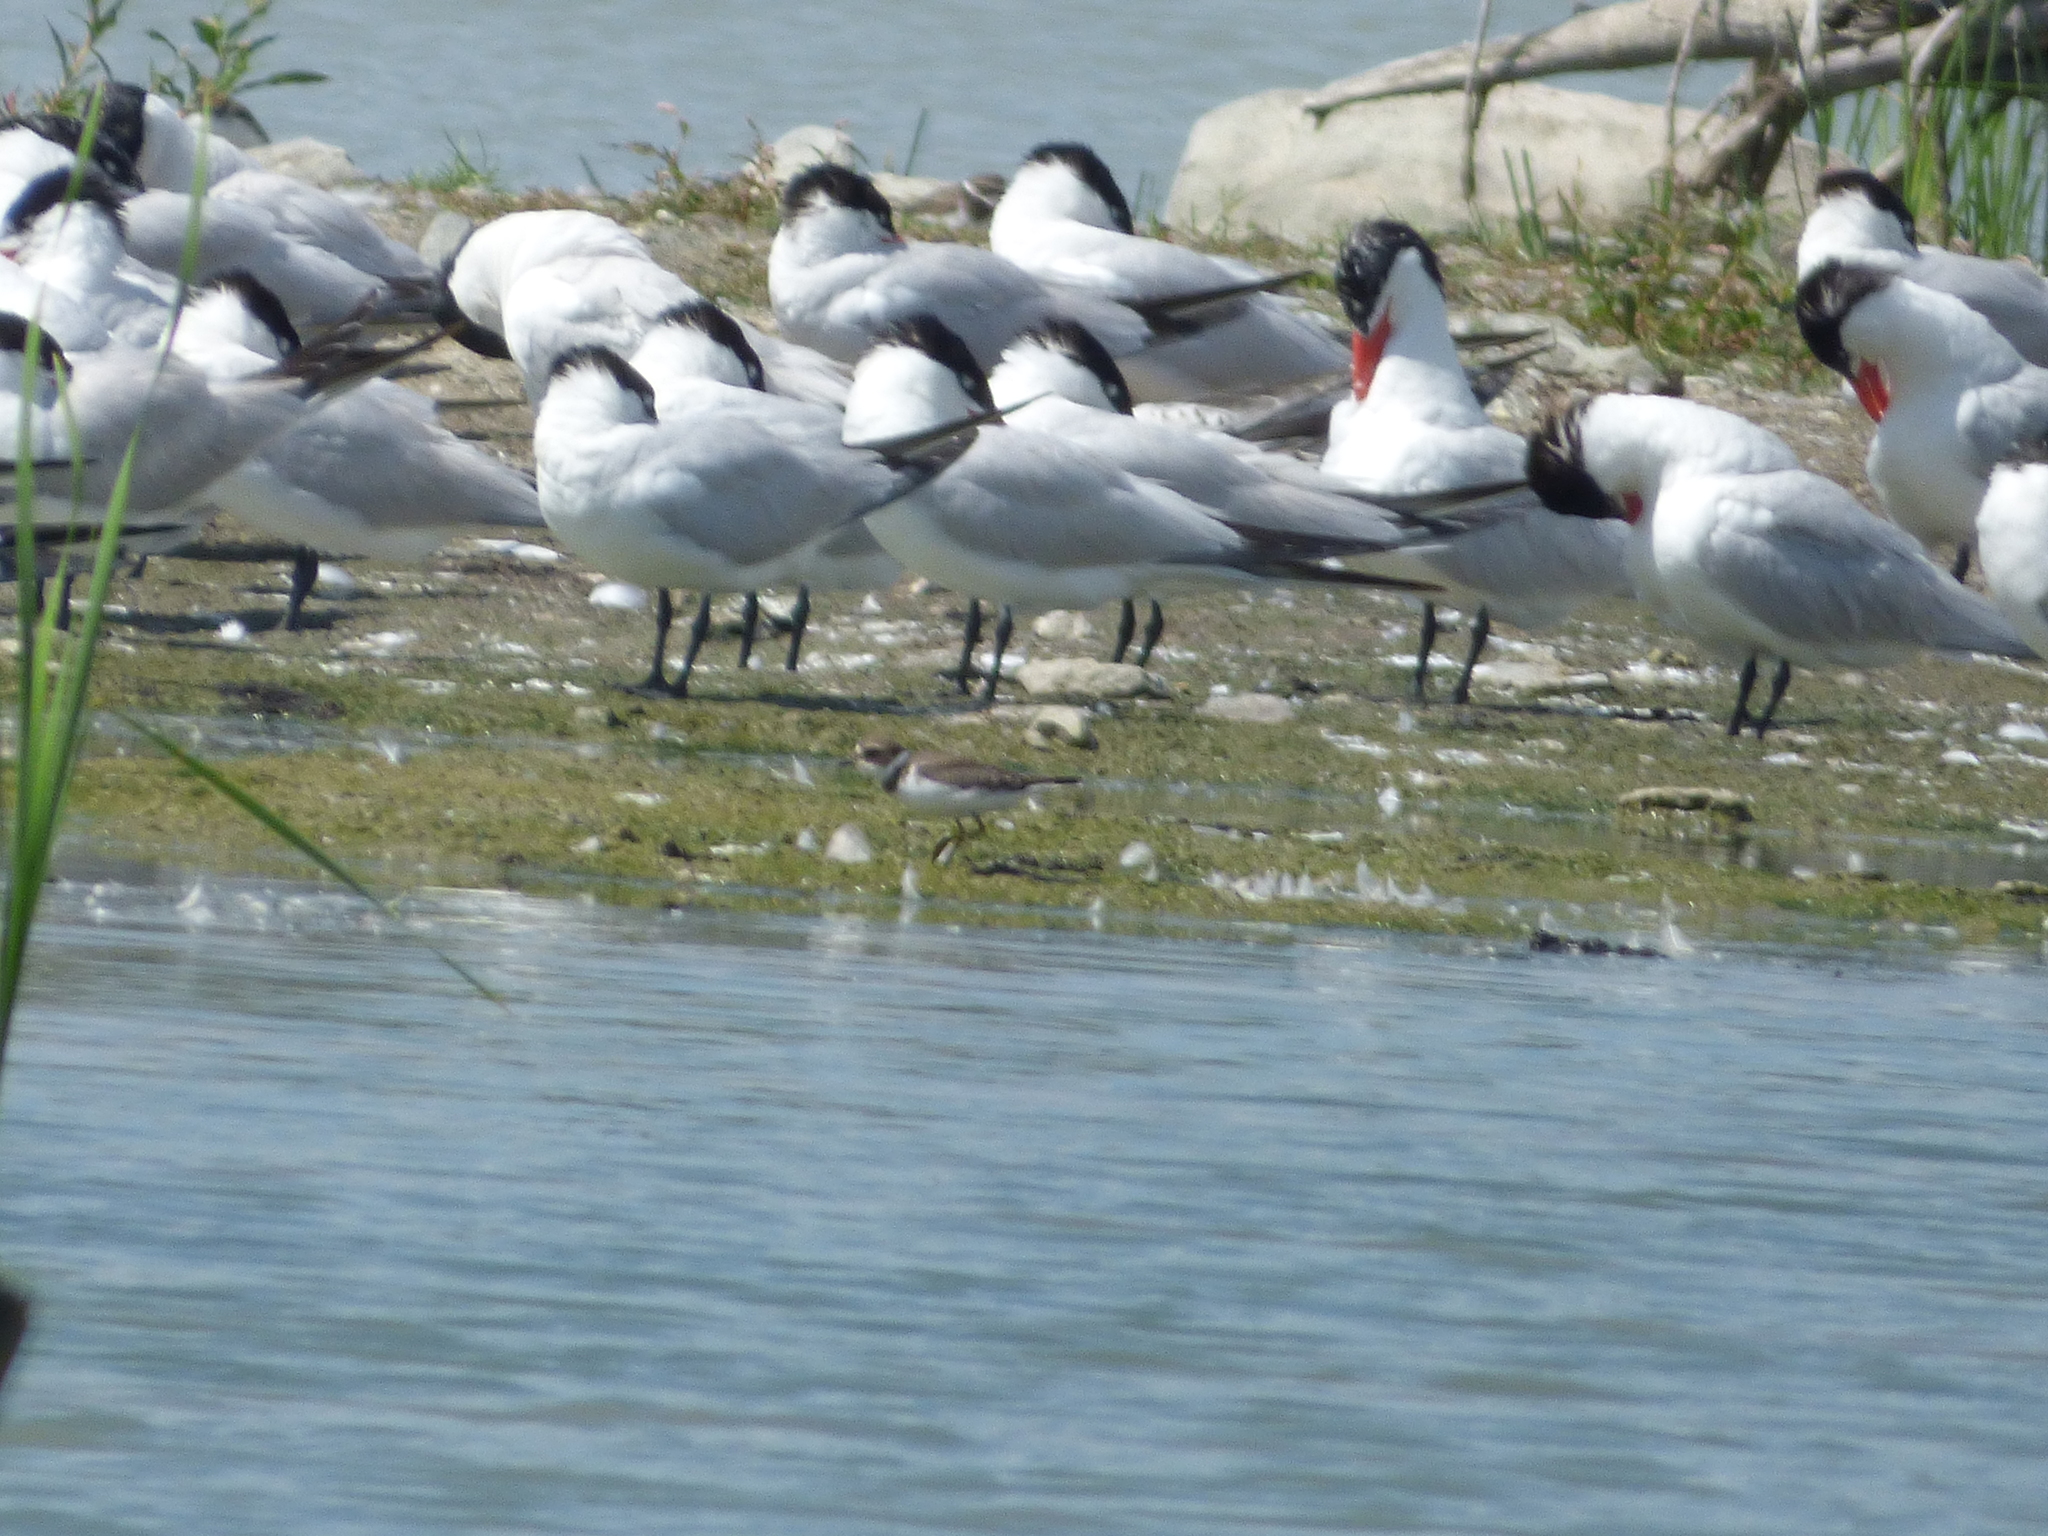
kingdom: Animalia
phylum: Chordata
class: Aves
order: Charadriiformes
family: Charadriidae
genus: Charadrius
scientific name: Charadrius semipalmatus
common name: Semipalmated plover
